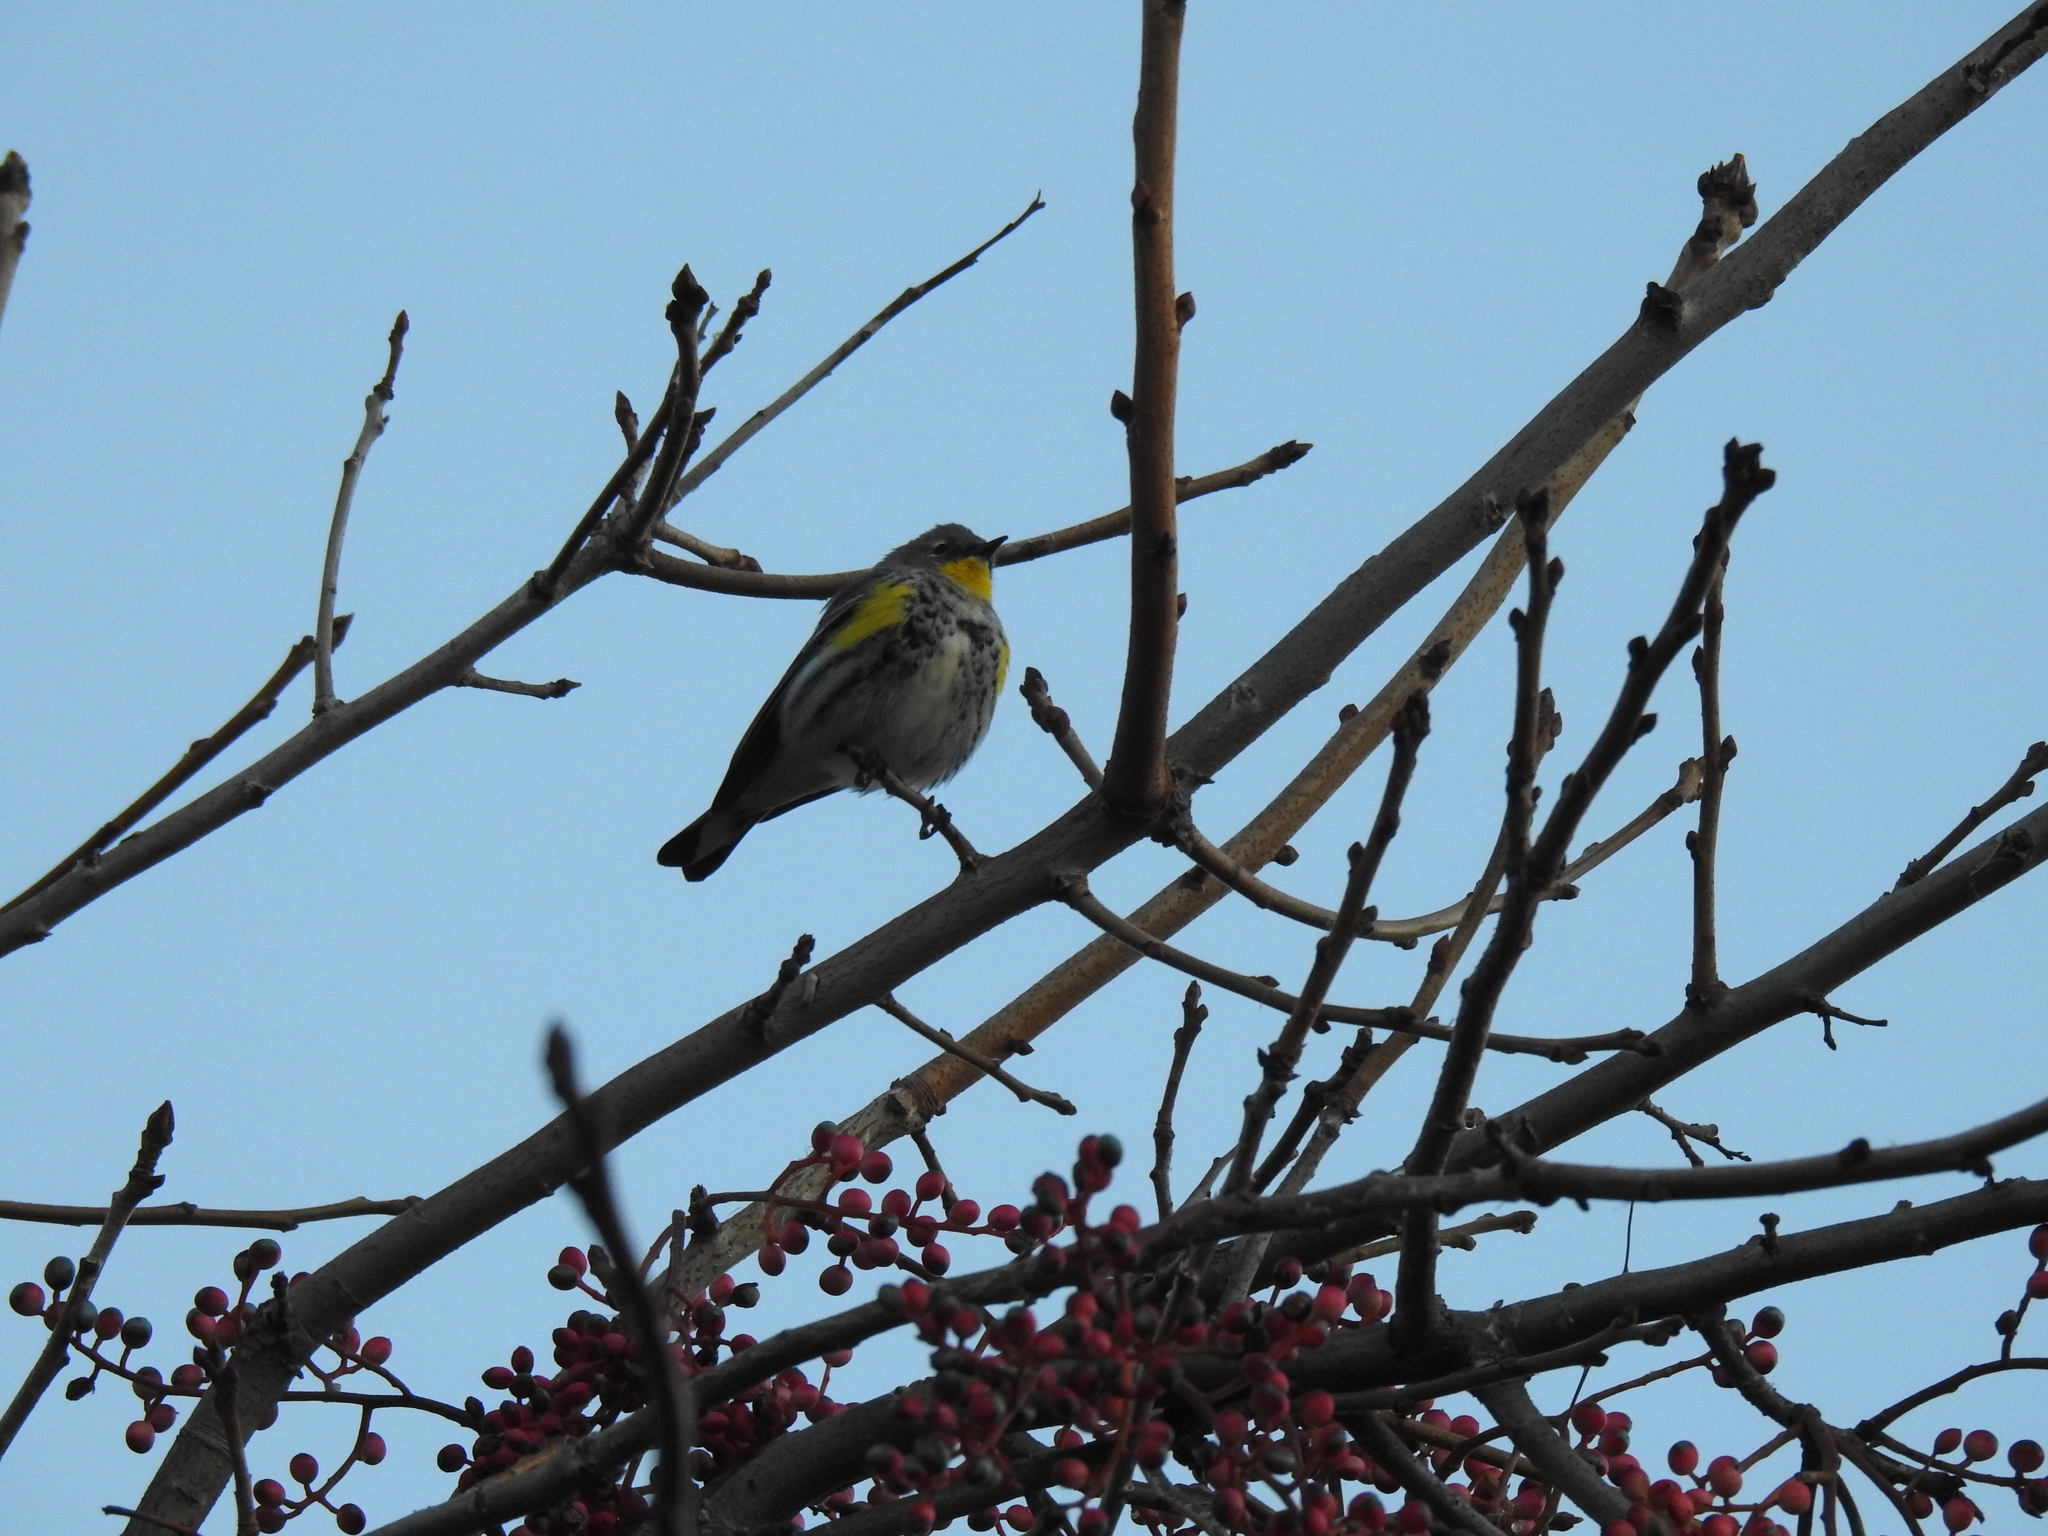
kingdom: Animalia
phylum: Chordata
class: Aves
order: Passeriformes
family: Parulidae
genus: Setophaga
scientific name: Setophaga coronata
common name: Myrtle warbler
